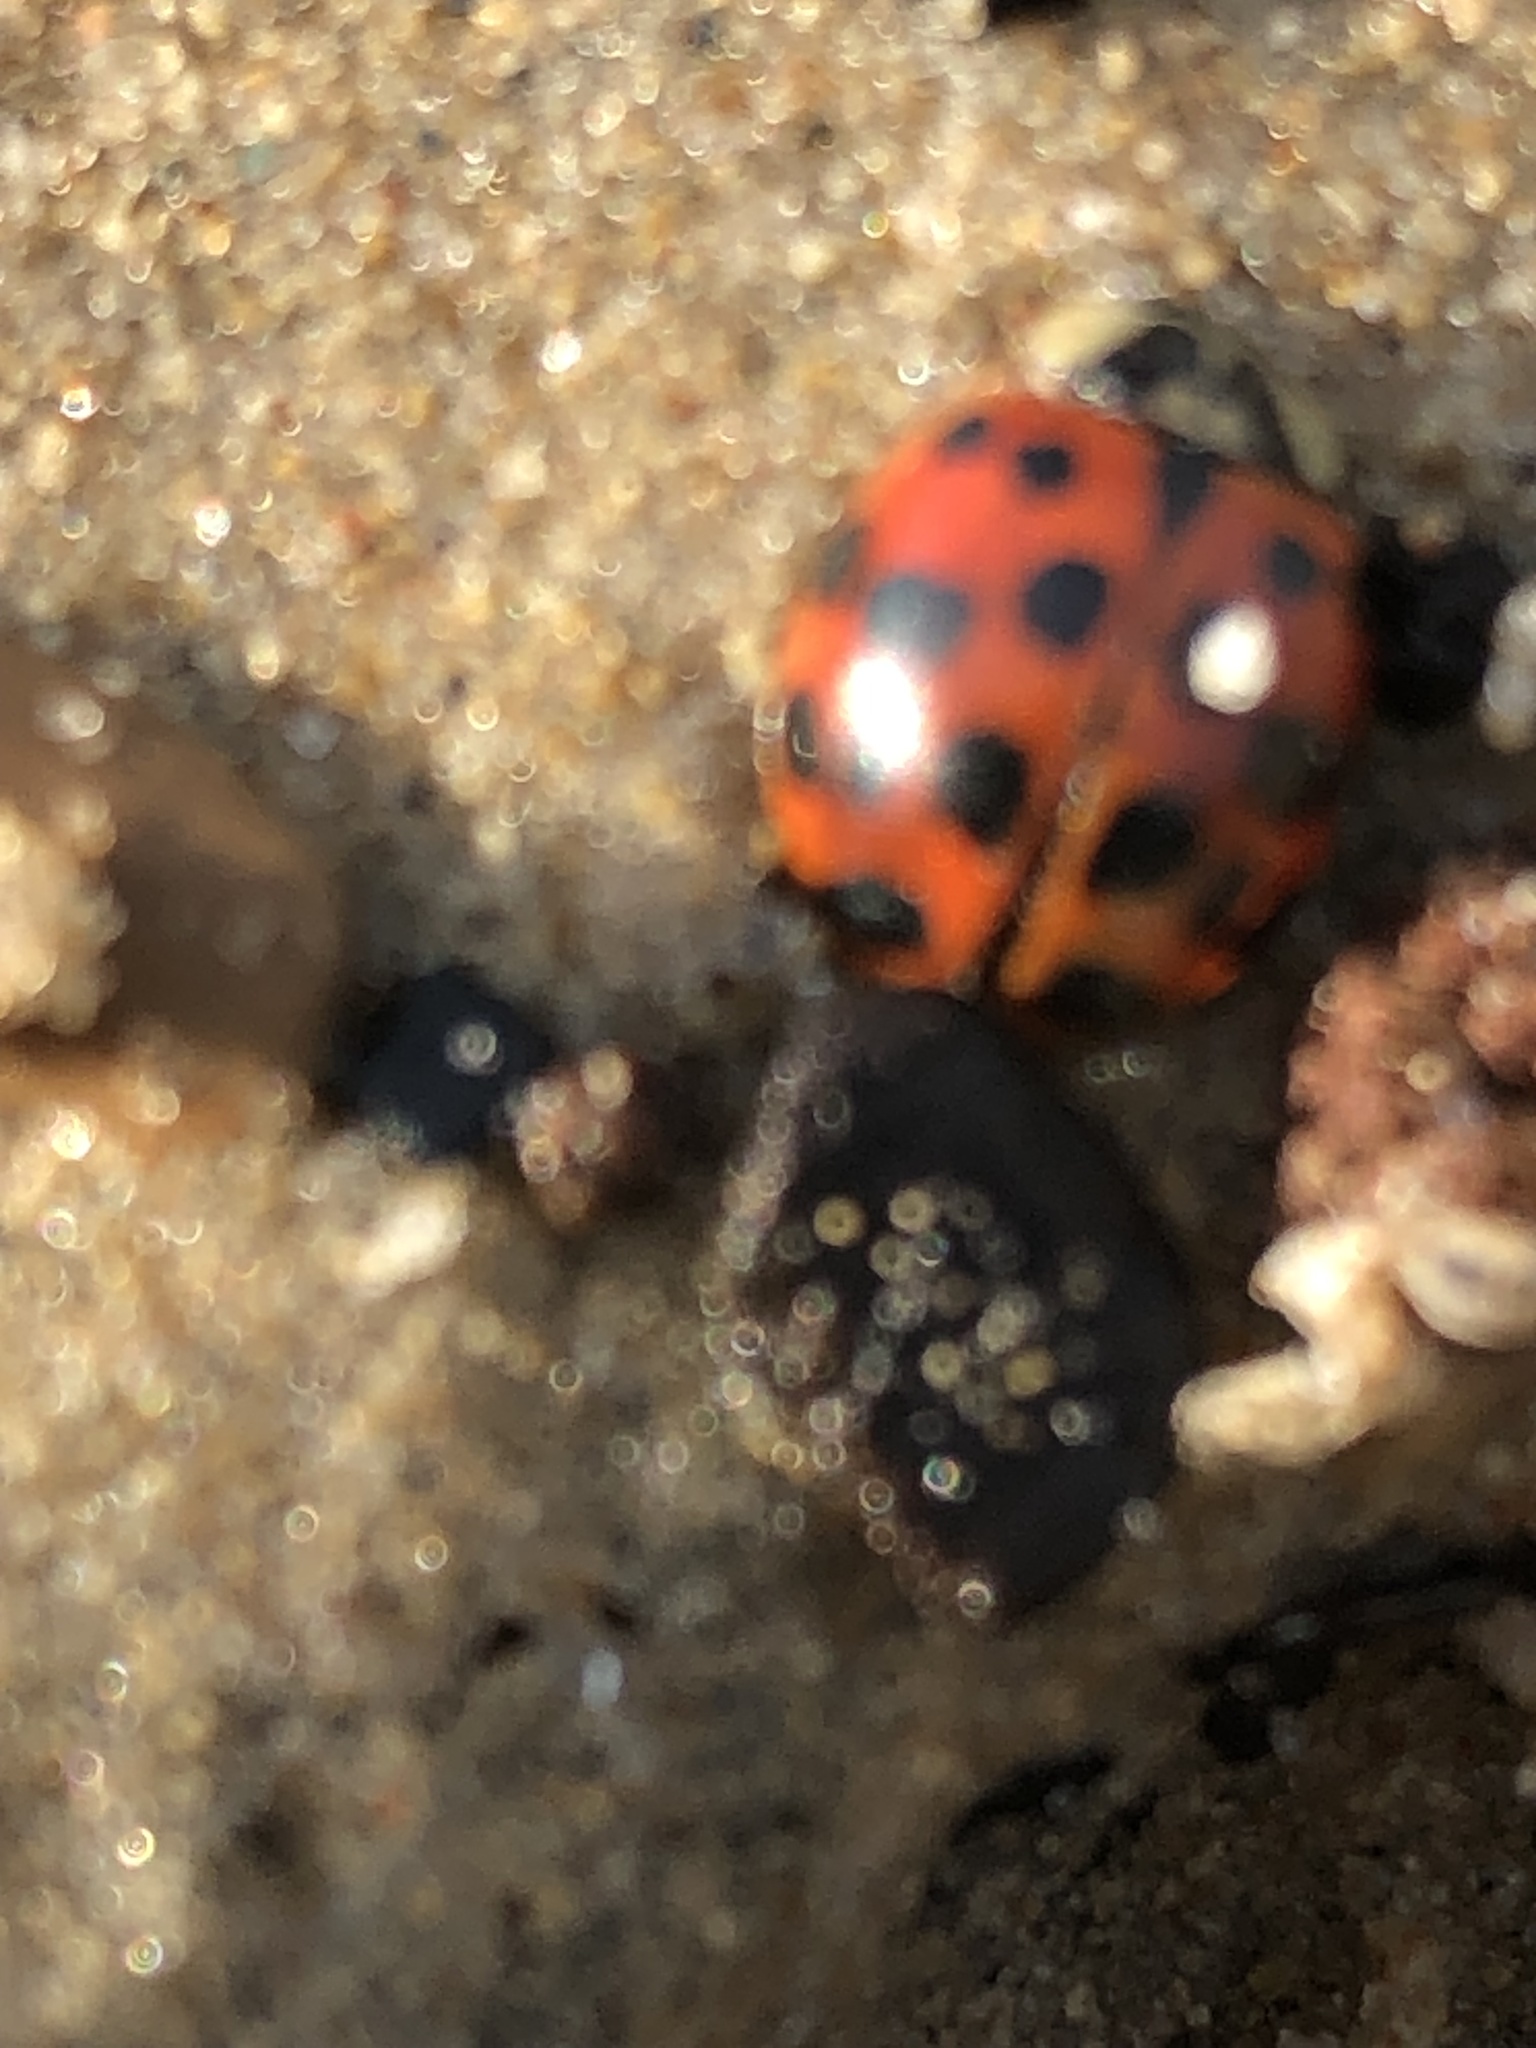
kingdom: Animalia
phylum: Arthropoda
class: Insecta
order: Coleoptera
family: Coccinellidae
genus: Harmonia
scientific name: Harmonia axyridis
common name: Harlequin ladybird
